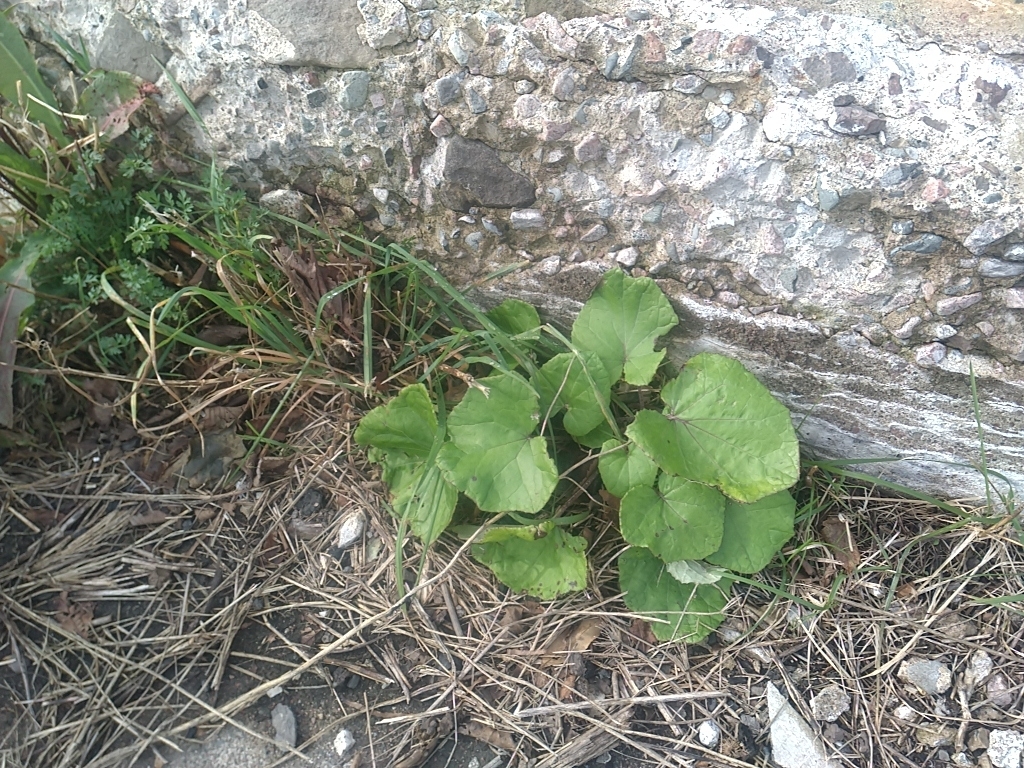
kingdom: Plantae
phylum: Tracheophyta
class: Magnoliopsida
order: Asterales
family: Asteraceae
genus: Tussilago
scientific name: Tussilago farfara
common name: Coltsfoot
